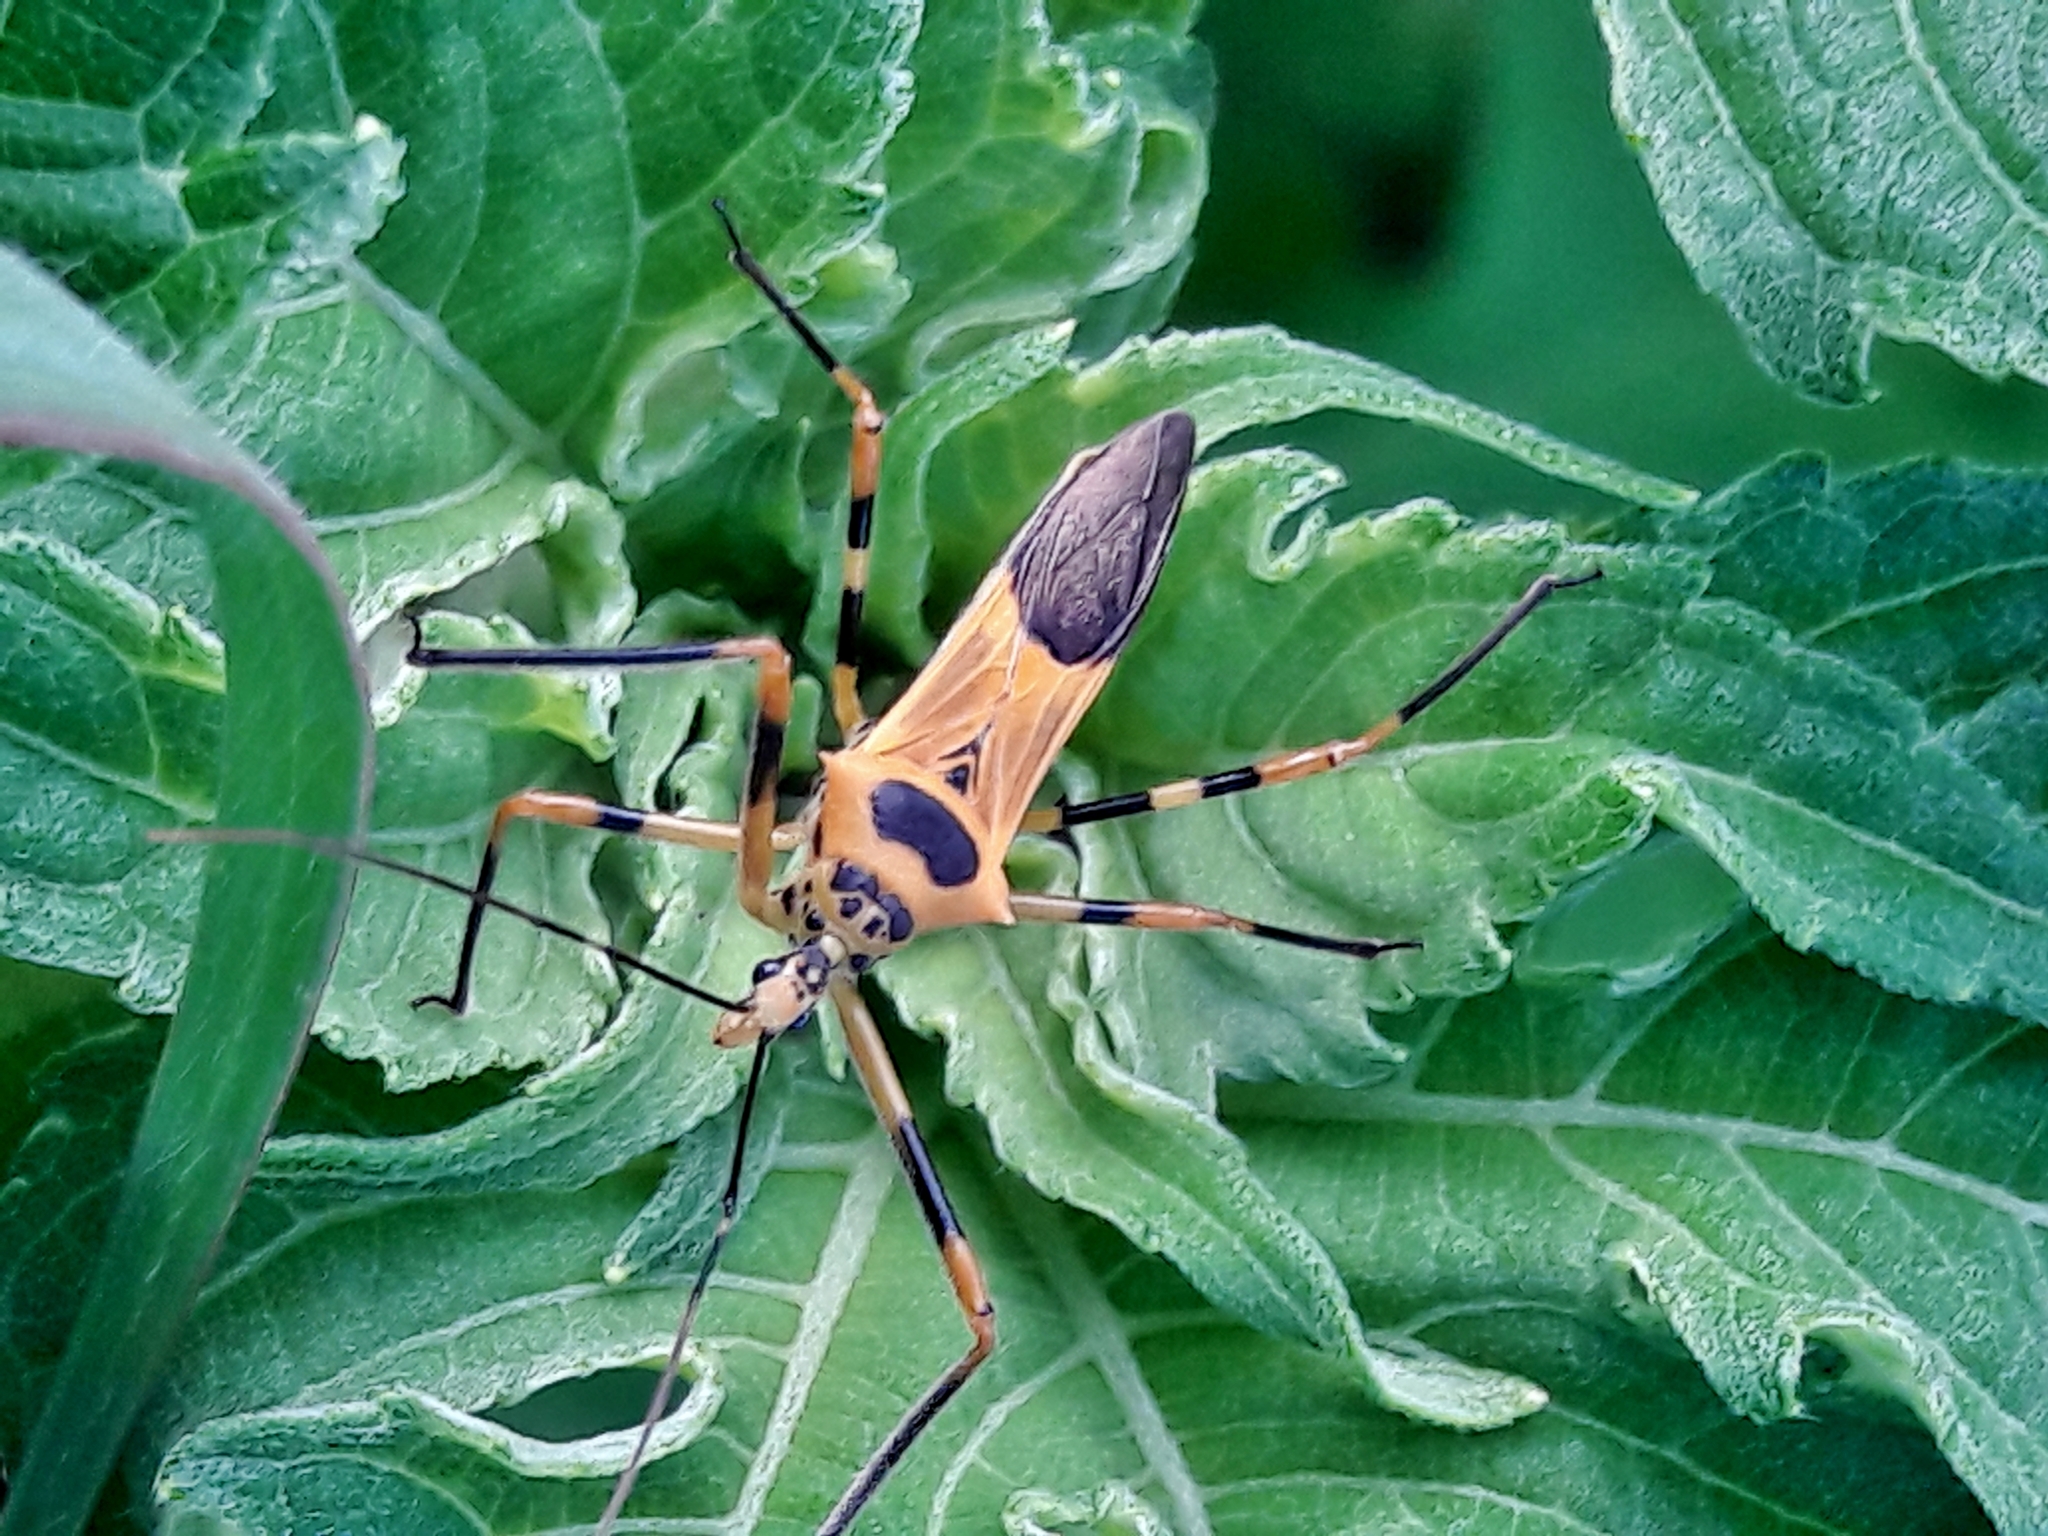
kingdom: Animalia
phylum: Arthropoda
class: Insecta
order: Hemiptera
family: Reduviidae
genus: Zelus
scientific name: Zelus armillatus
